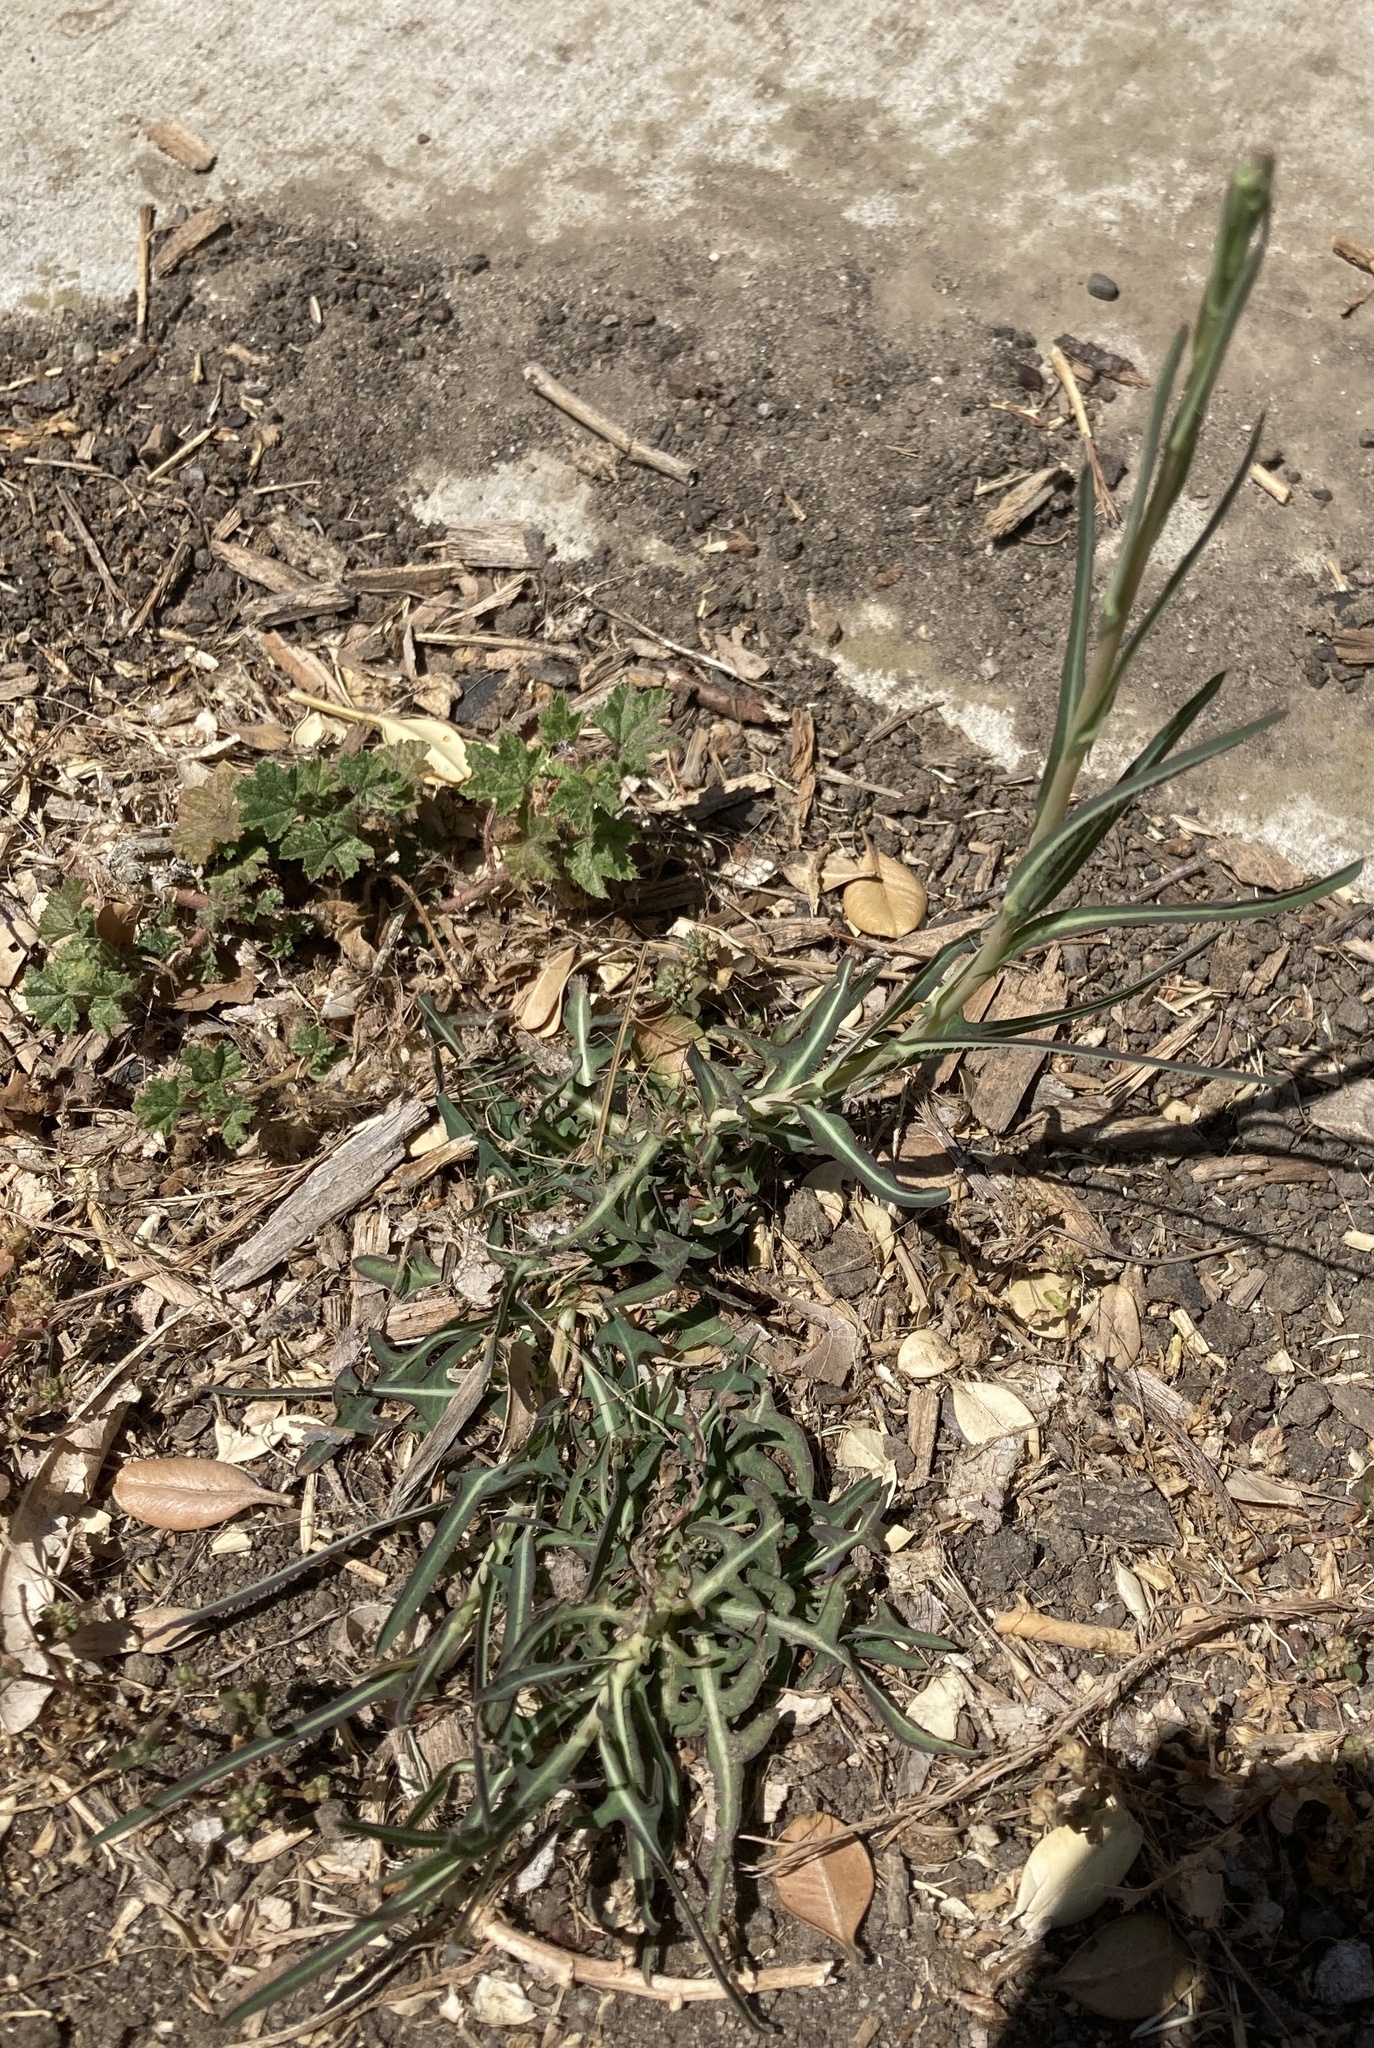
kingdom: Plantae
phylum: Tracheophyta
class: Magnoliopsida
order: Asterales
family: Asteraceae
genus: Lactuca
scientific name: Lactuca saligna
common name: Wild lettuce
